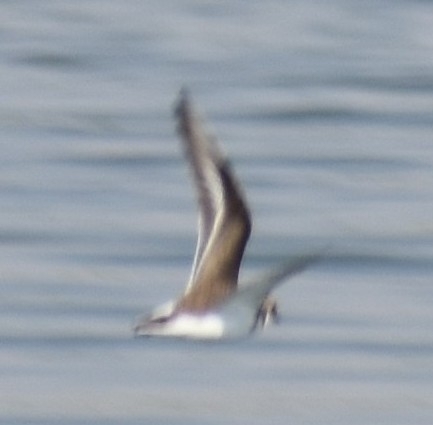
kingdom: Animalia
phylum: Chordata
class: Aves
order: Charadriiformes
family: Charadriidae
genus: Charadrius
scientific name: Charadrius hiaticula
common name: Common ringed plover
